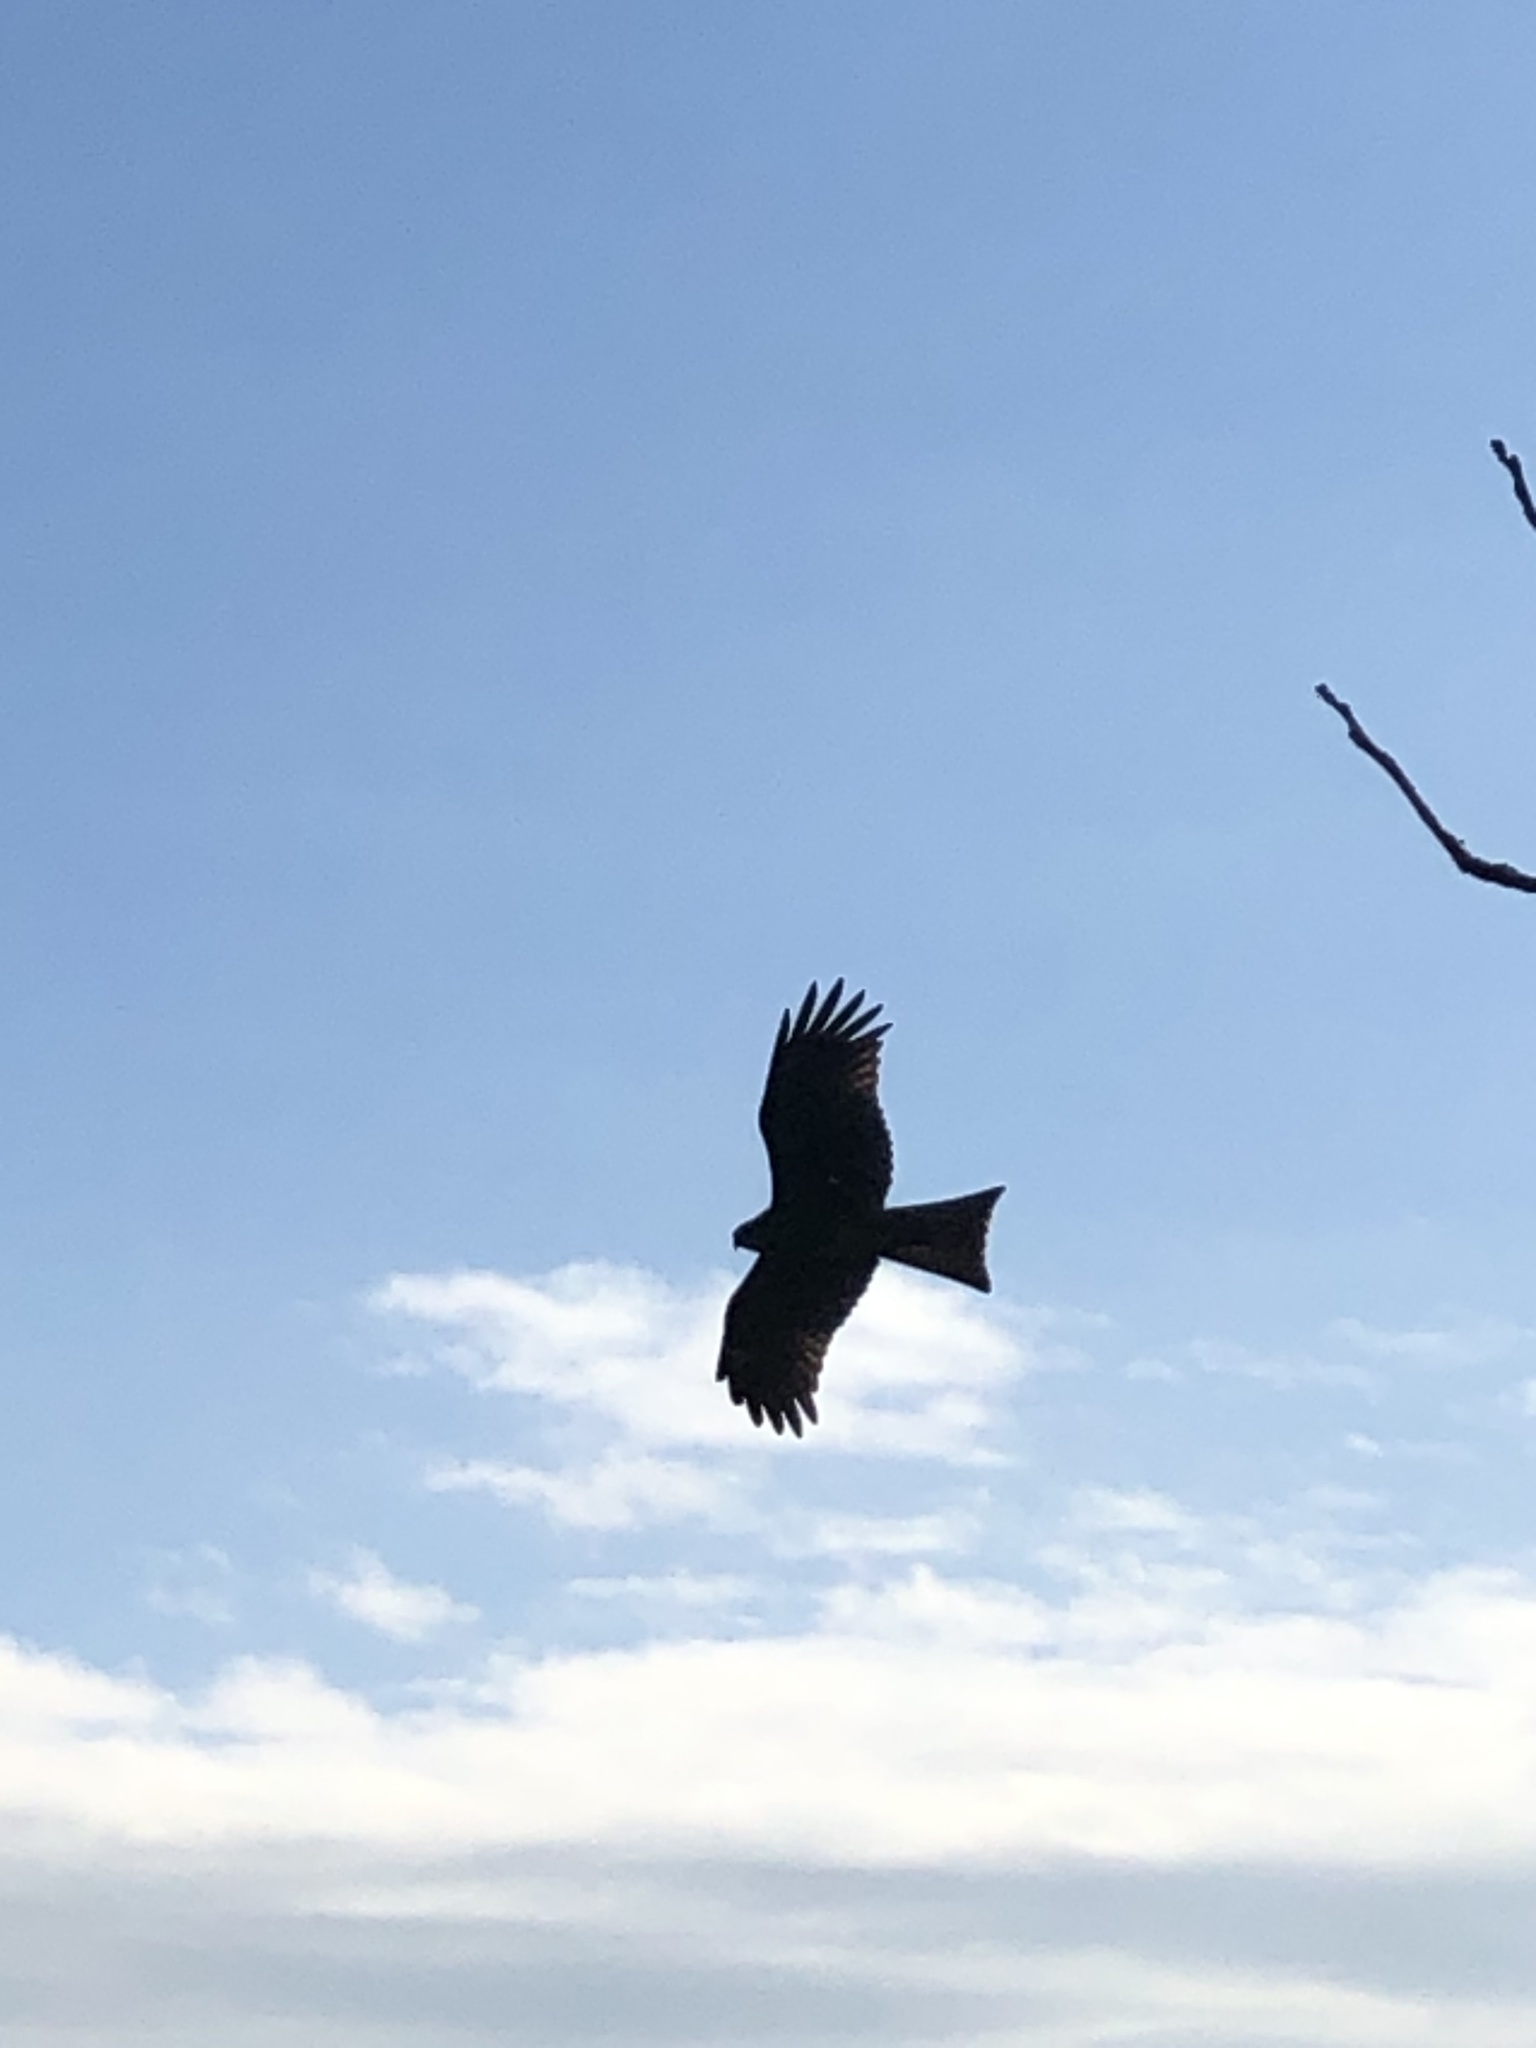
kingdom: Animalia
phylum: Chordata
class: Aves
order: Accipitriformes
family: Accipitridae
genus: Milvus
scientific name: Milvus migrans
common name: Black kite
